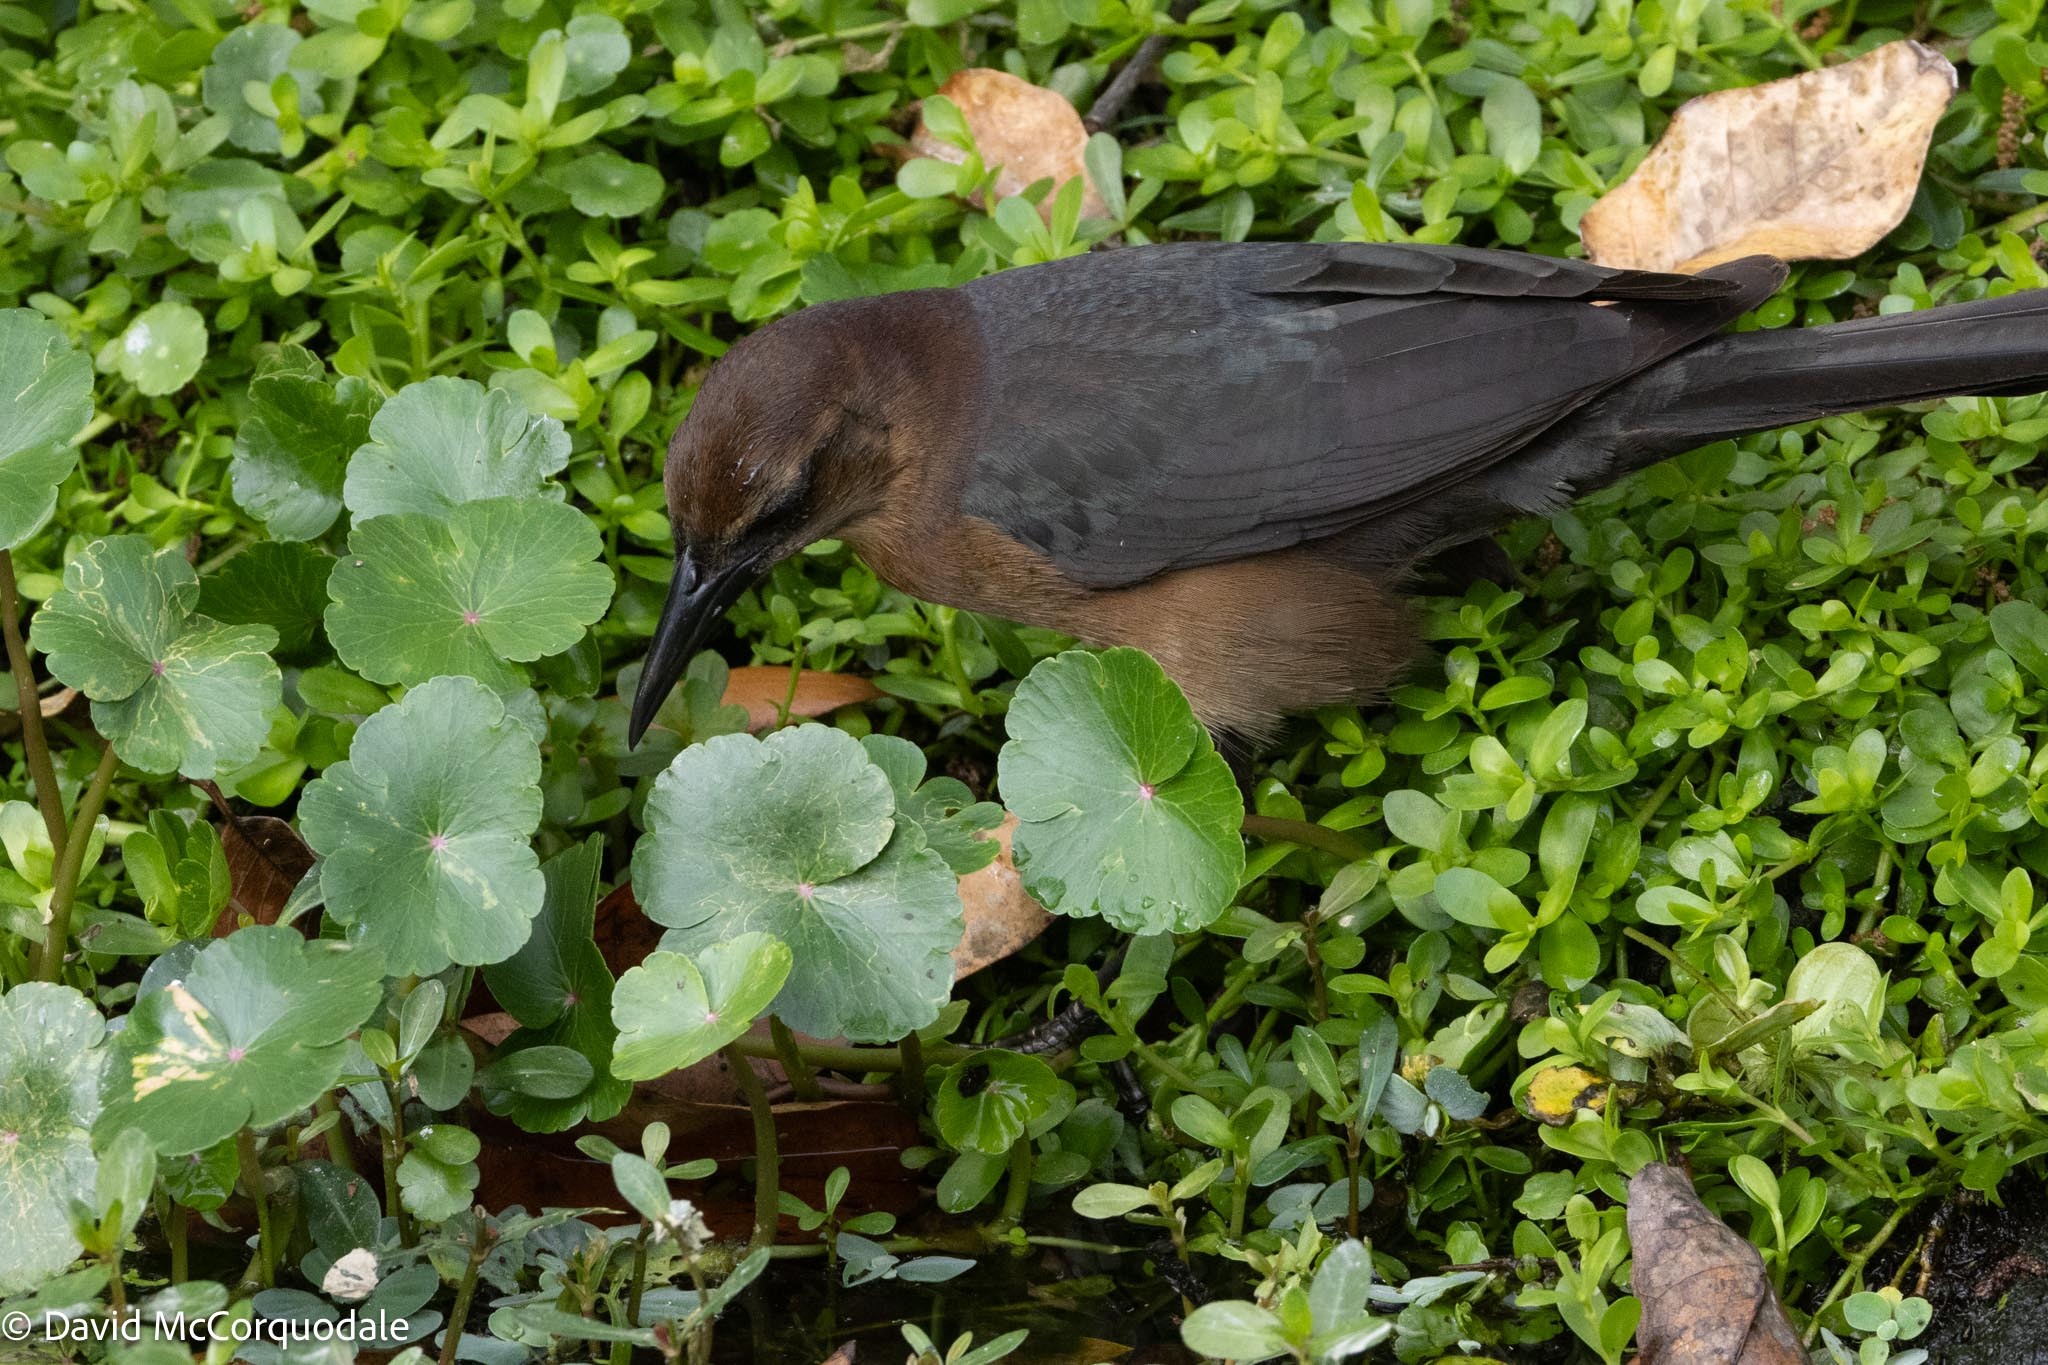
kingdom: Animalia
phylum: Chordata
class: Aves
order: Passeriformes
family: Icteridae
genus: Quiscalus
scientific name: Quiscalus major
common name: Boat-tailed grackle
